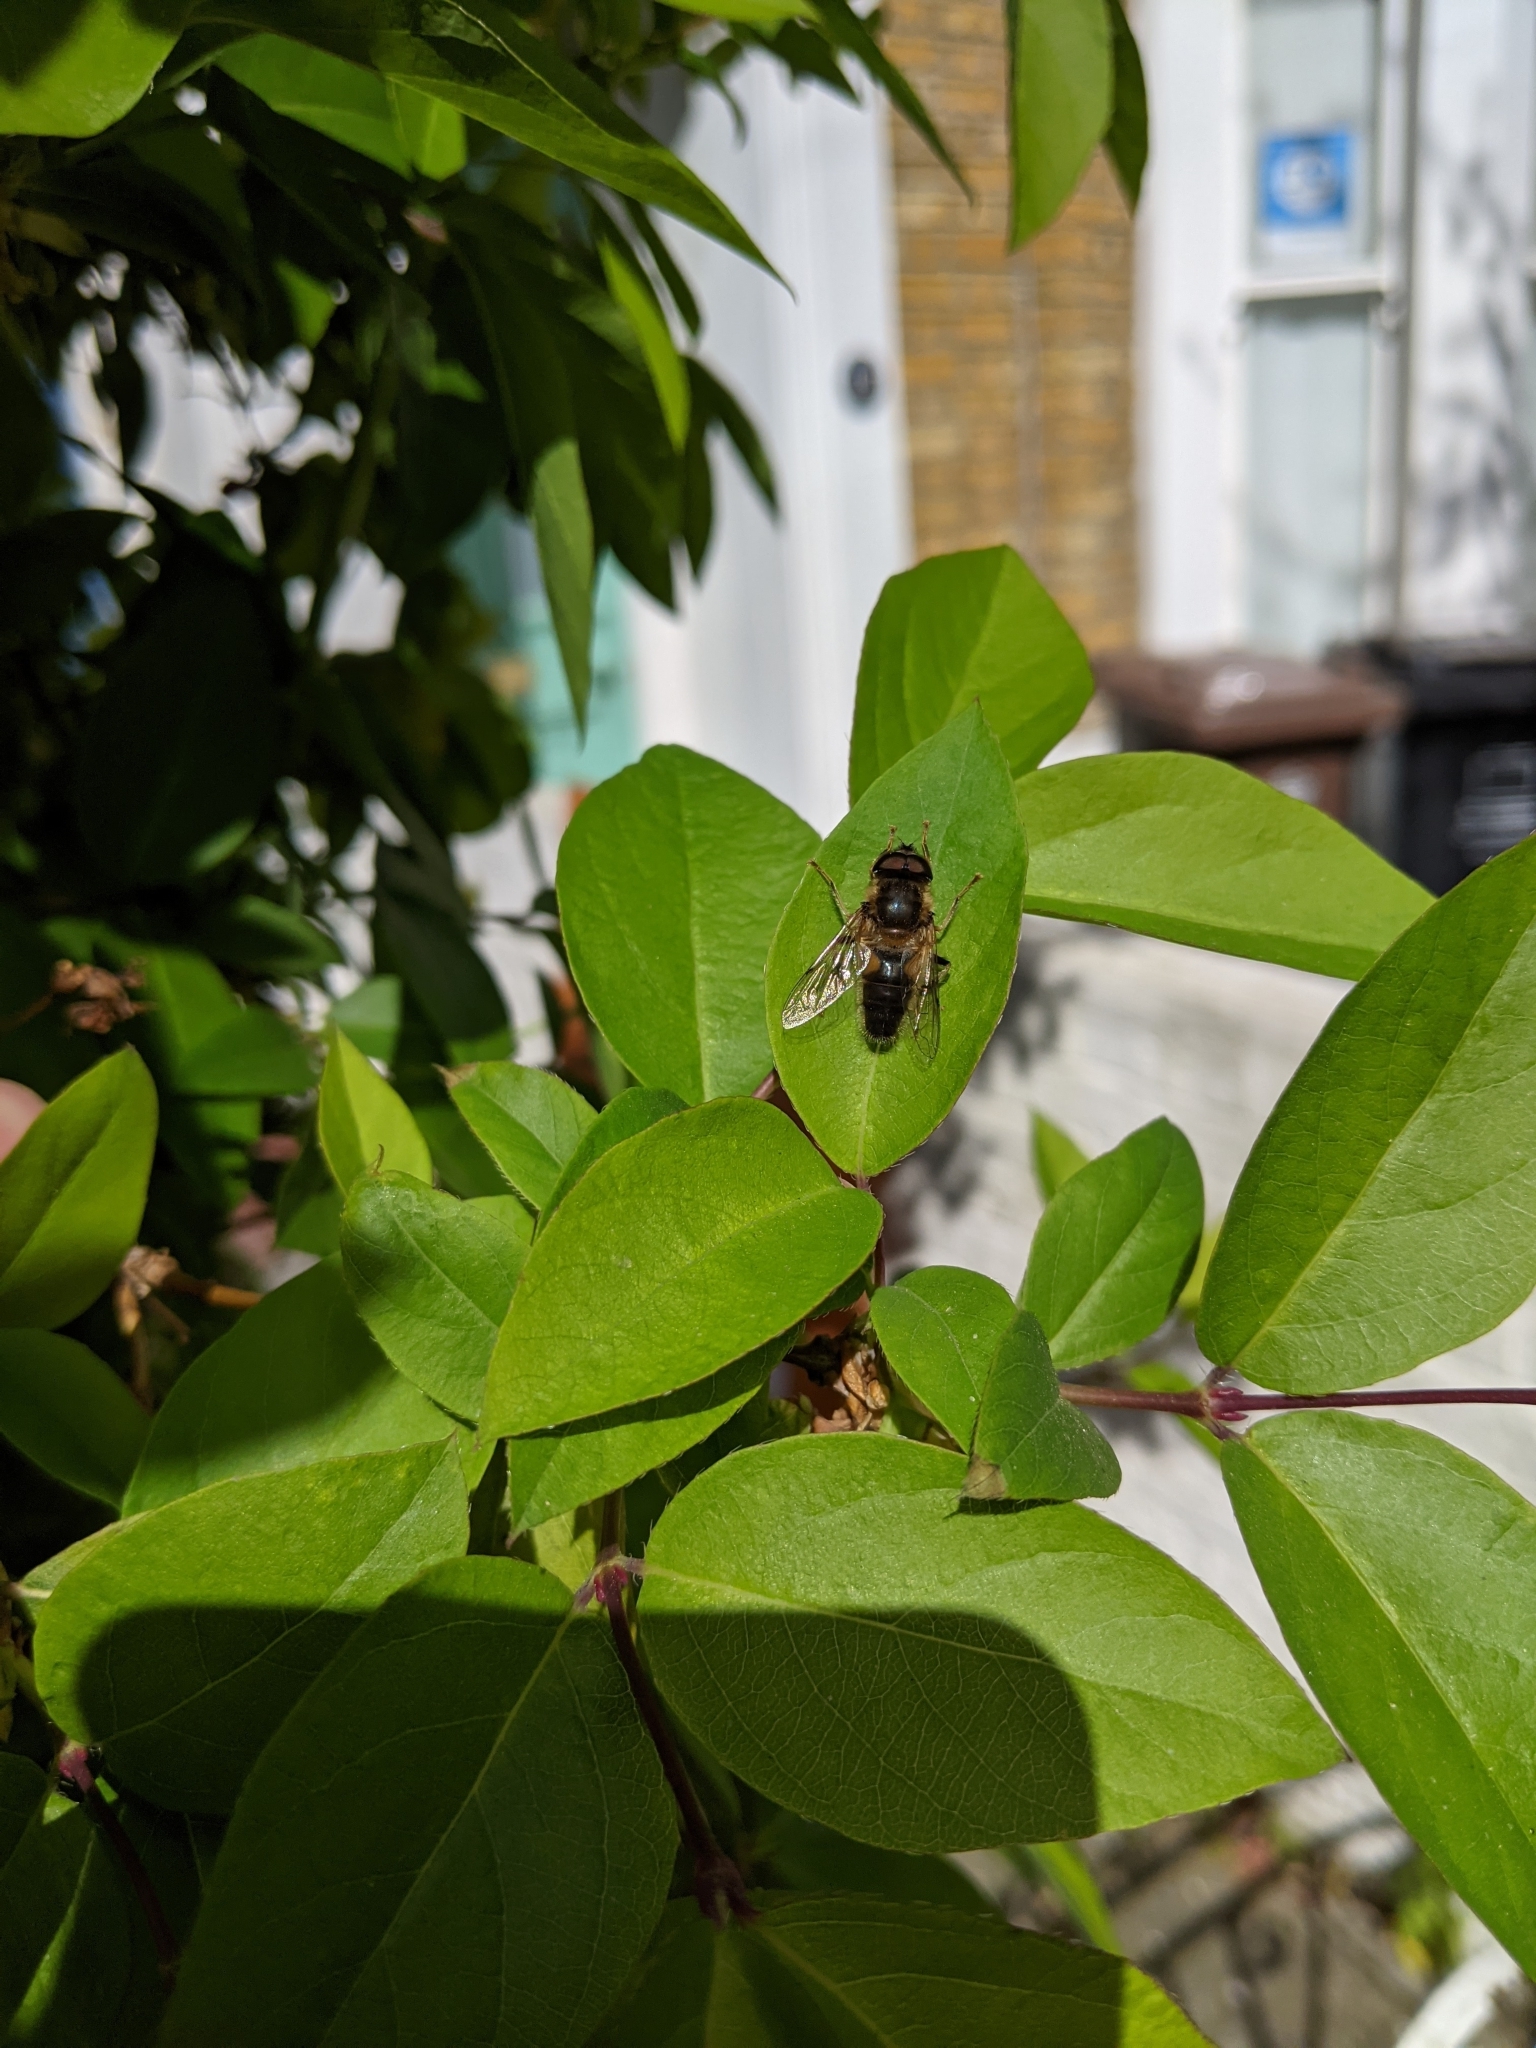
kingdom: Animalia
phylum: Arthropoda
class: Insecta
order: Diptera
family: Syrphidae
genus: Eristalis
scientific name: Eristalis pertinax
